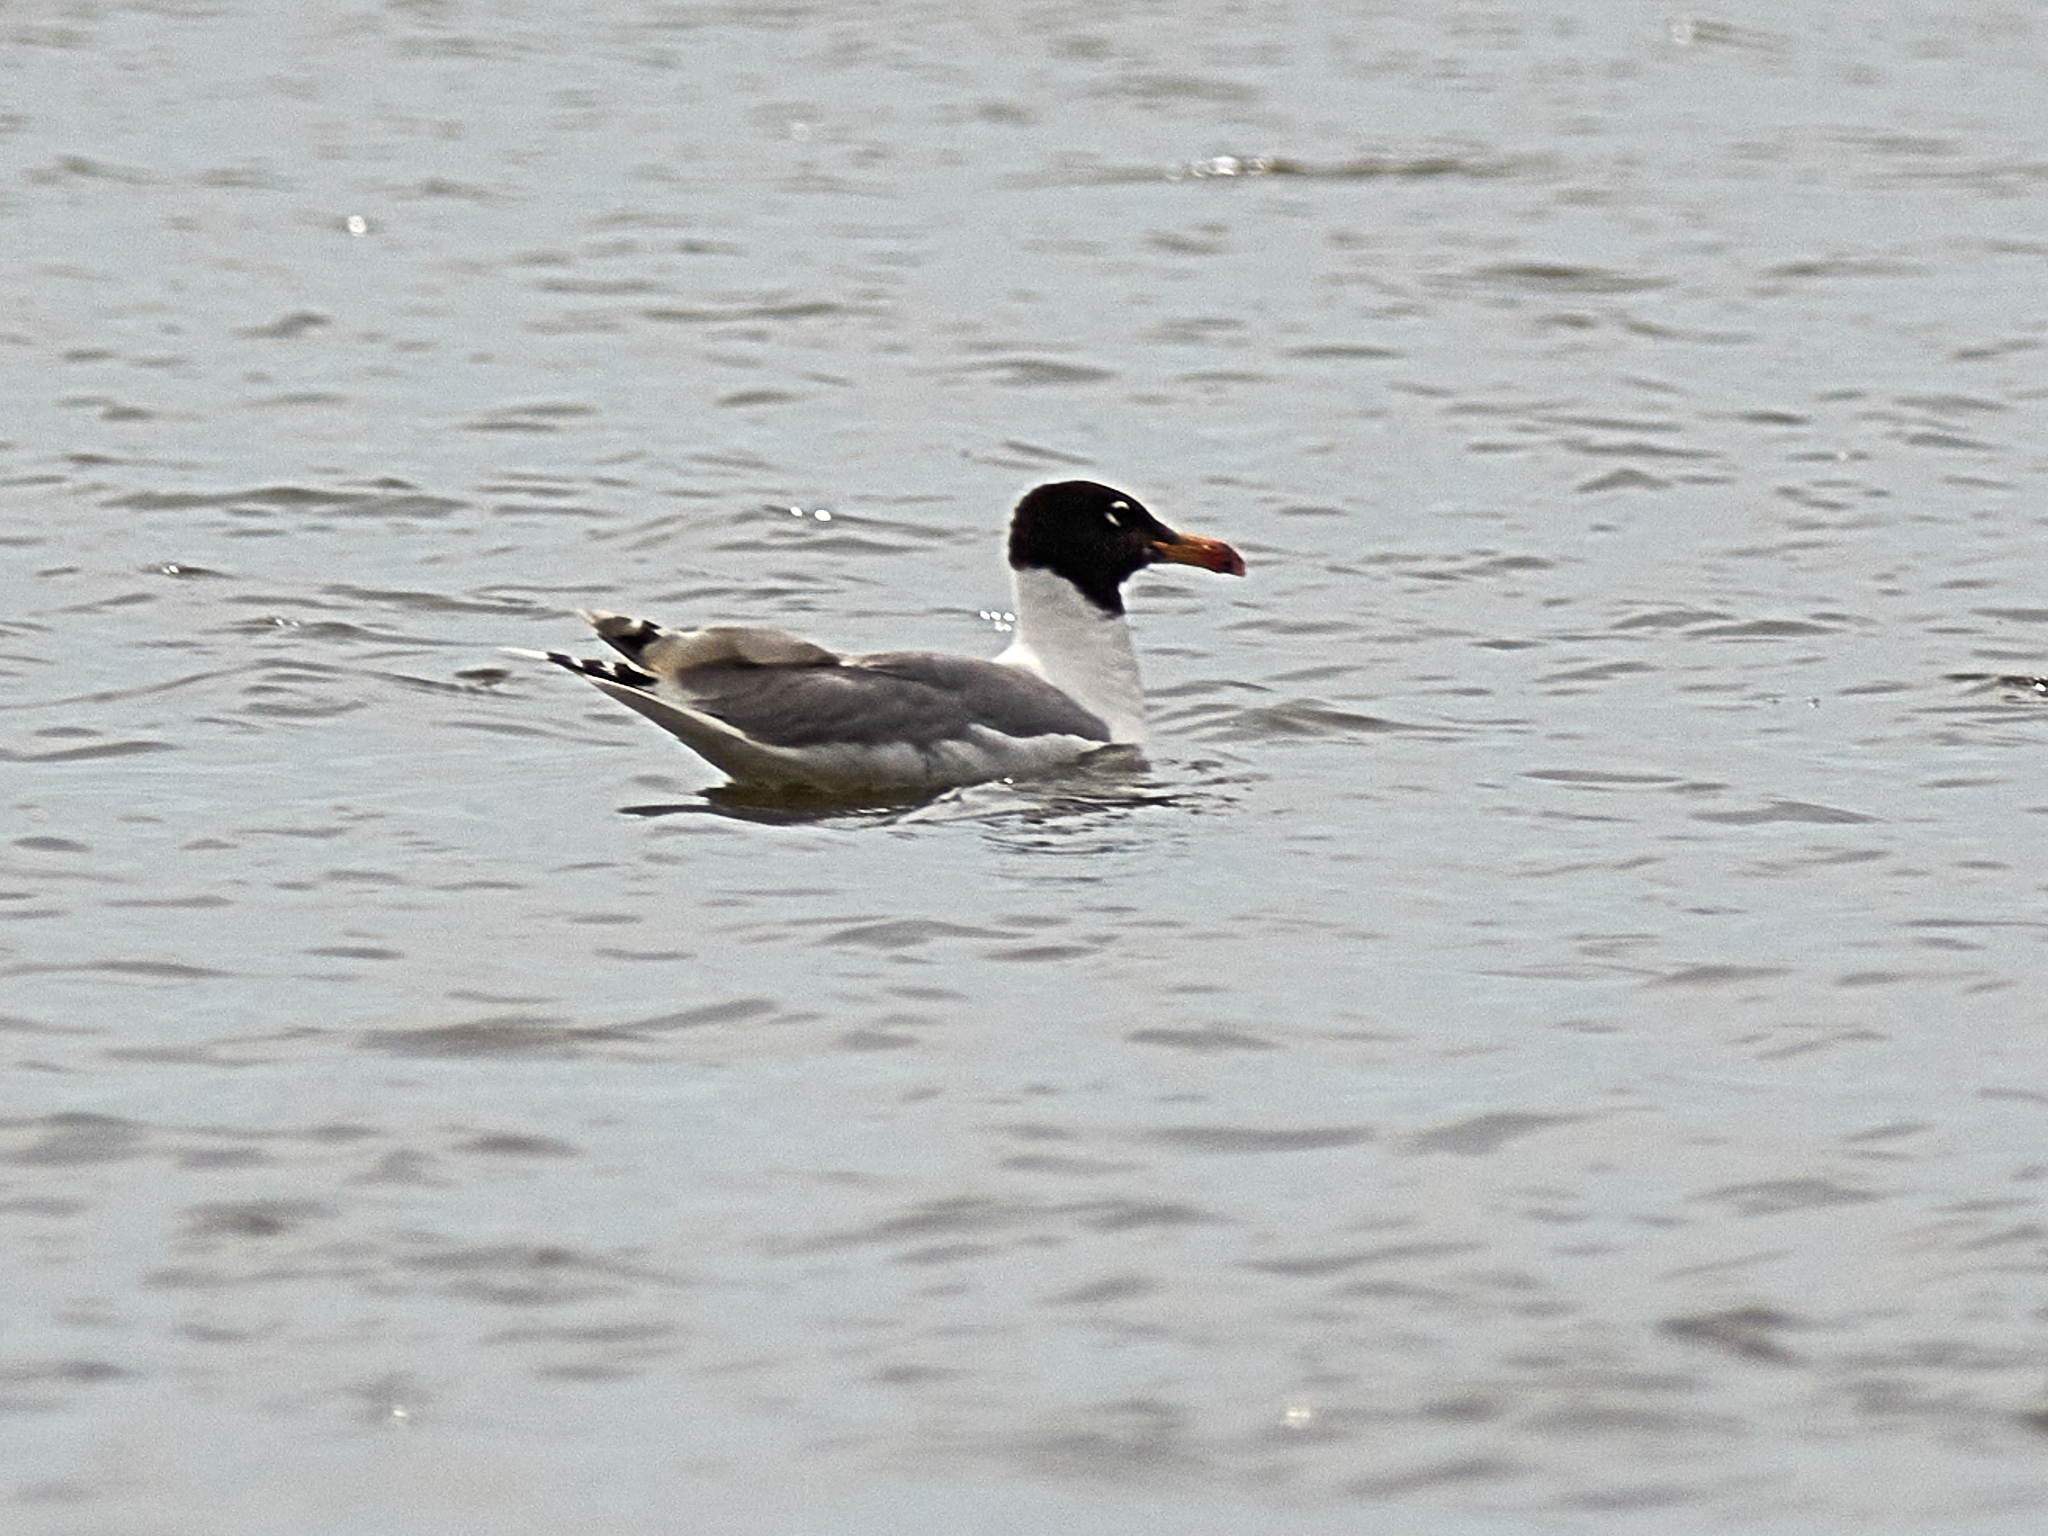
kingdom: Animalia
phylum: Chordata
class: Aves
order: Charadriiformes
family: Laridae
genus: Ichthyaetus
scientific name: Ichthyaetus ichthyaetus
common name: Pallas's gull
